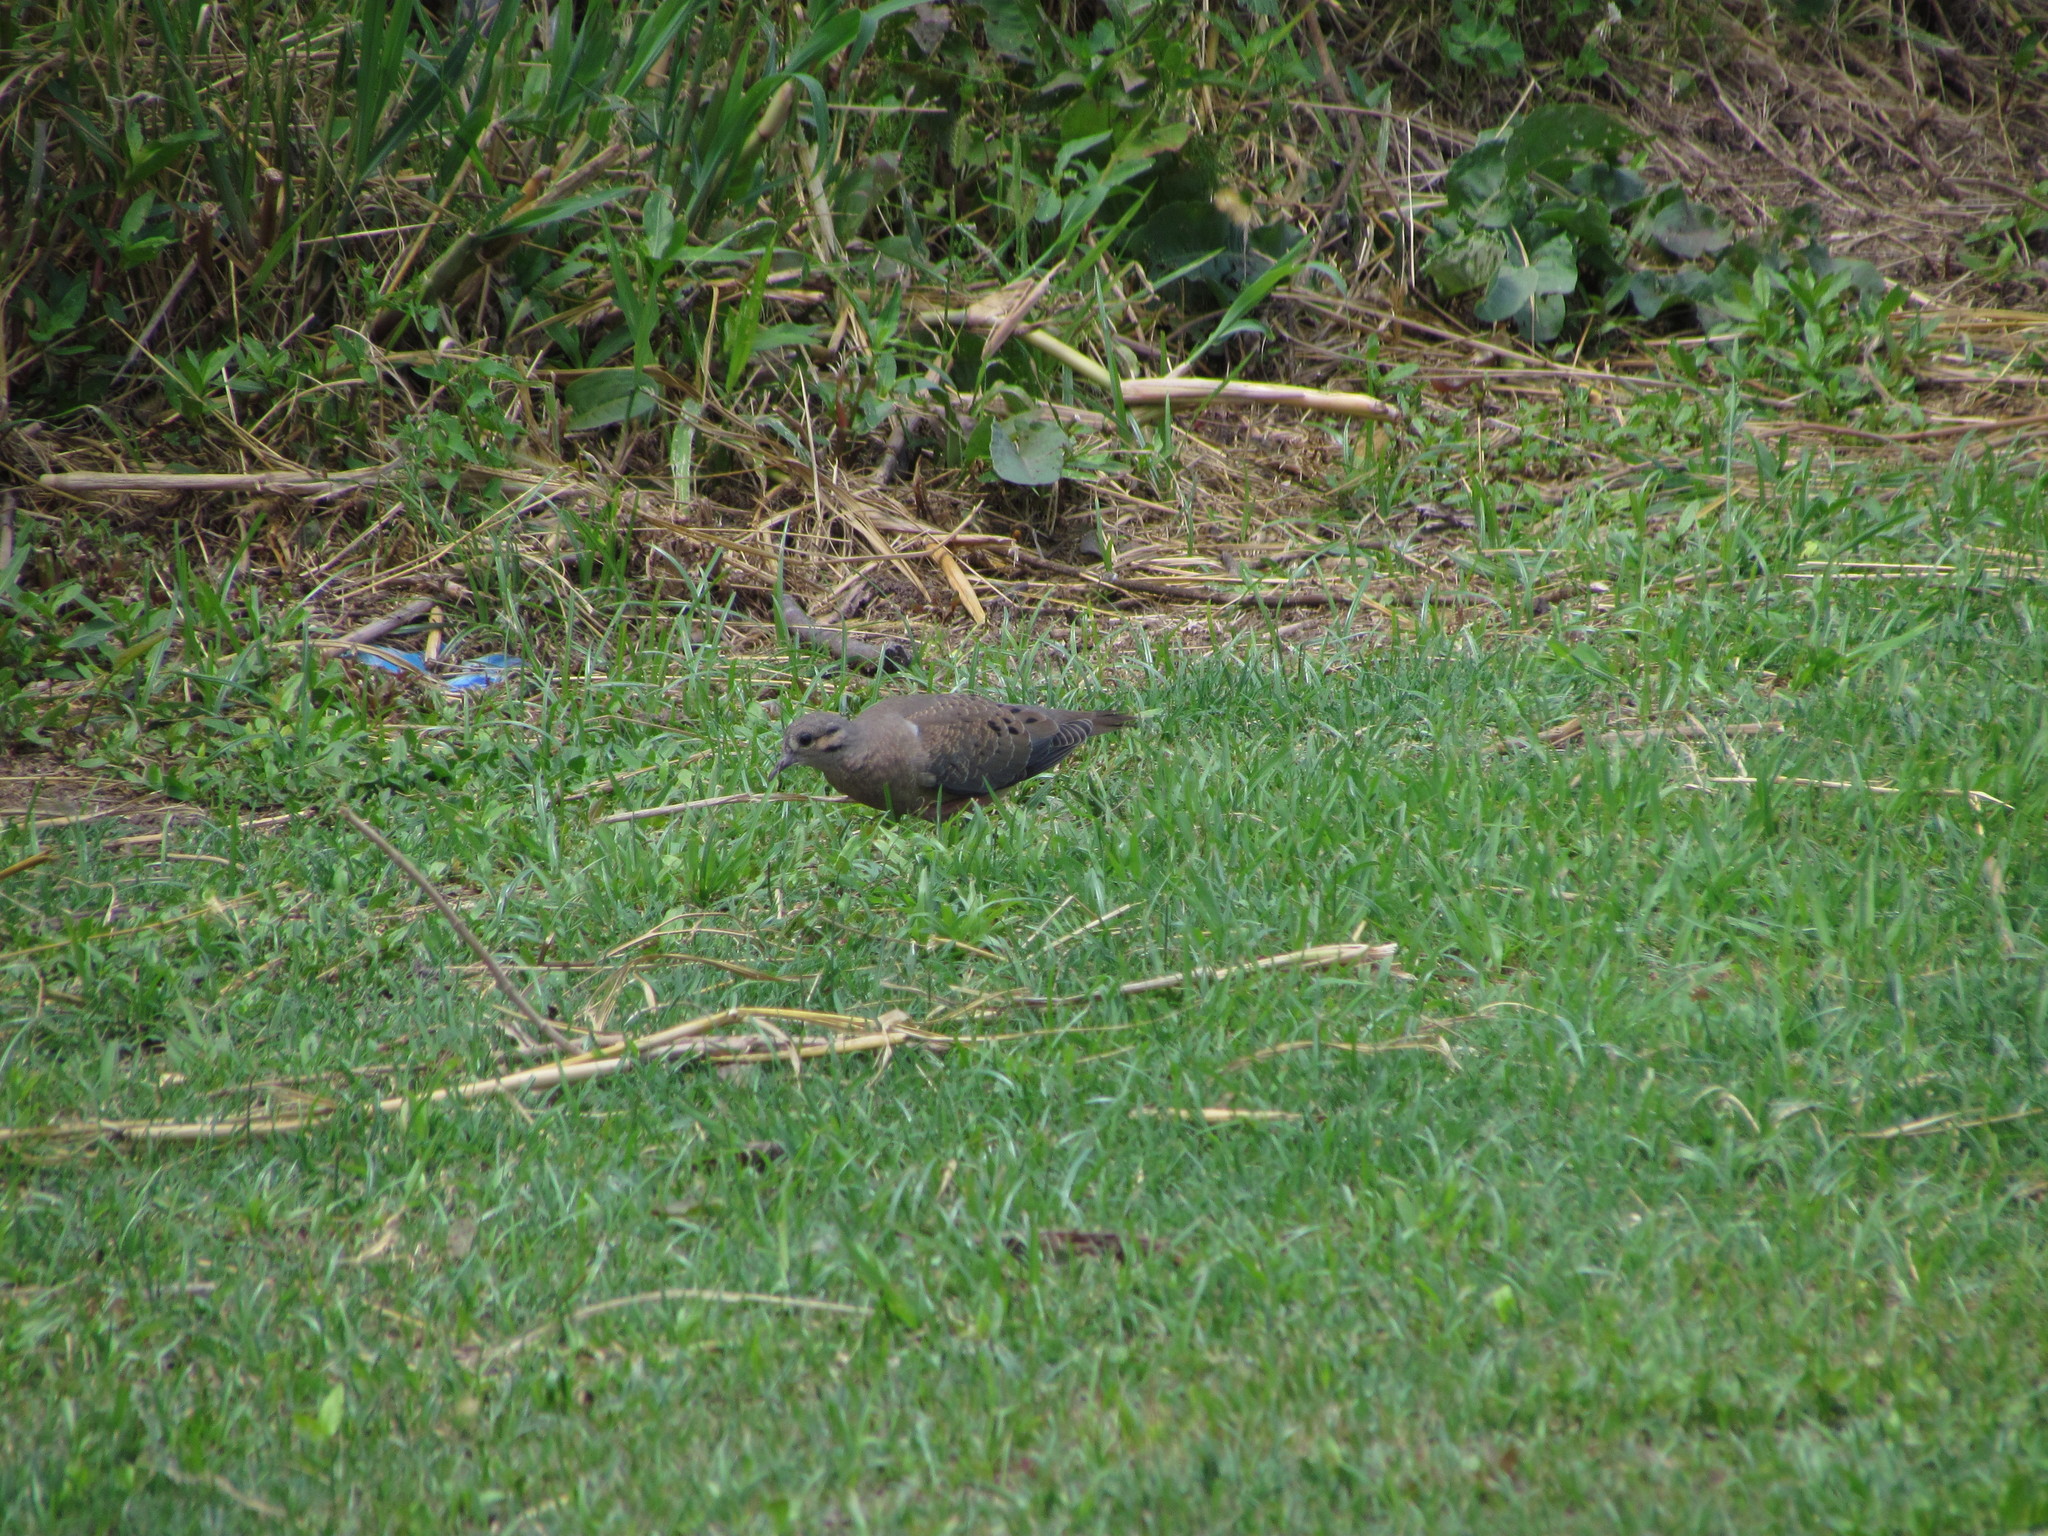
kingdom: Animalia
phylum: Chordata
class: Aves
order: Columbiformes
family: Columbidae
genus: Zenaida
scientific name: Zenaida auriculata
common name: Eared dove
